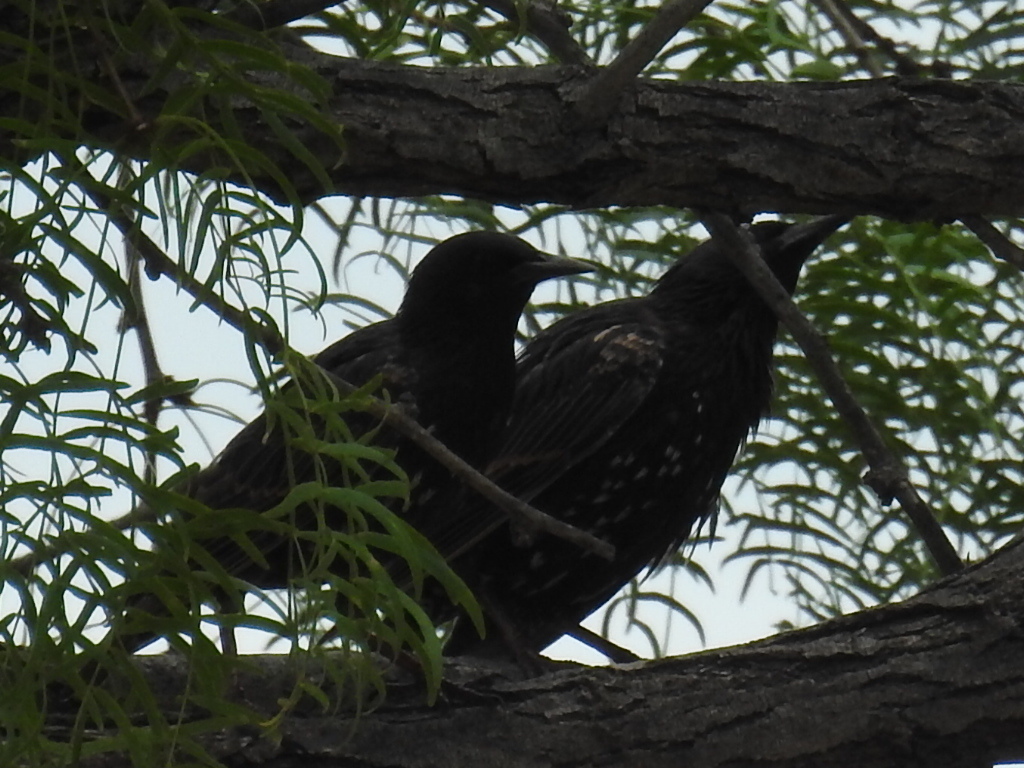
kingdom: Animalia
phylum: Chordata
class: Aves
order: Passeriformes
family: Sturnidae
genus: Sturnus
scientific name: Sturnus vulgaris
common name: Common starling
